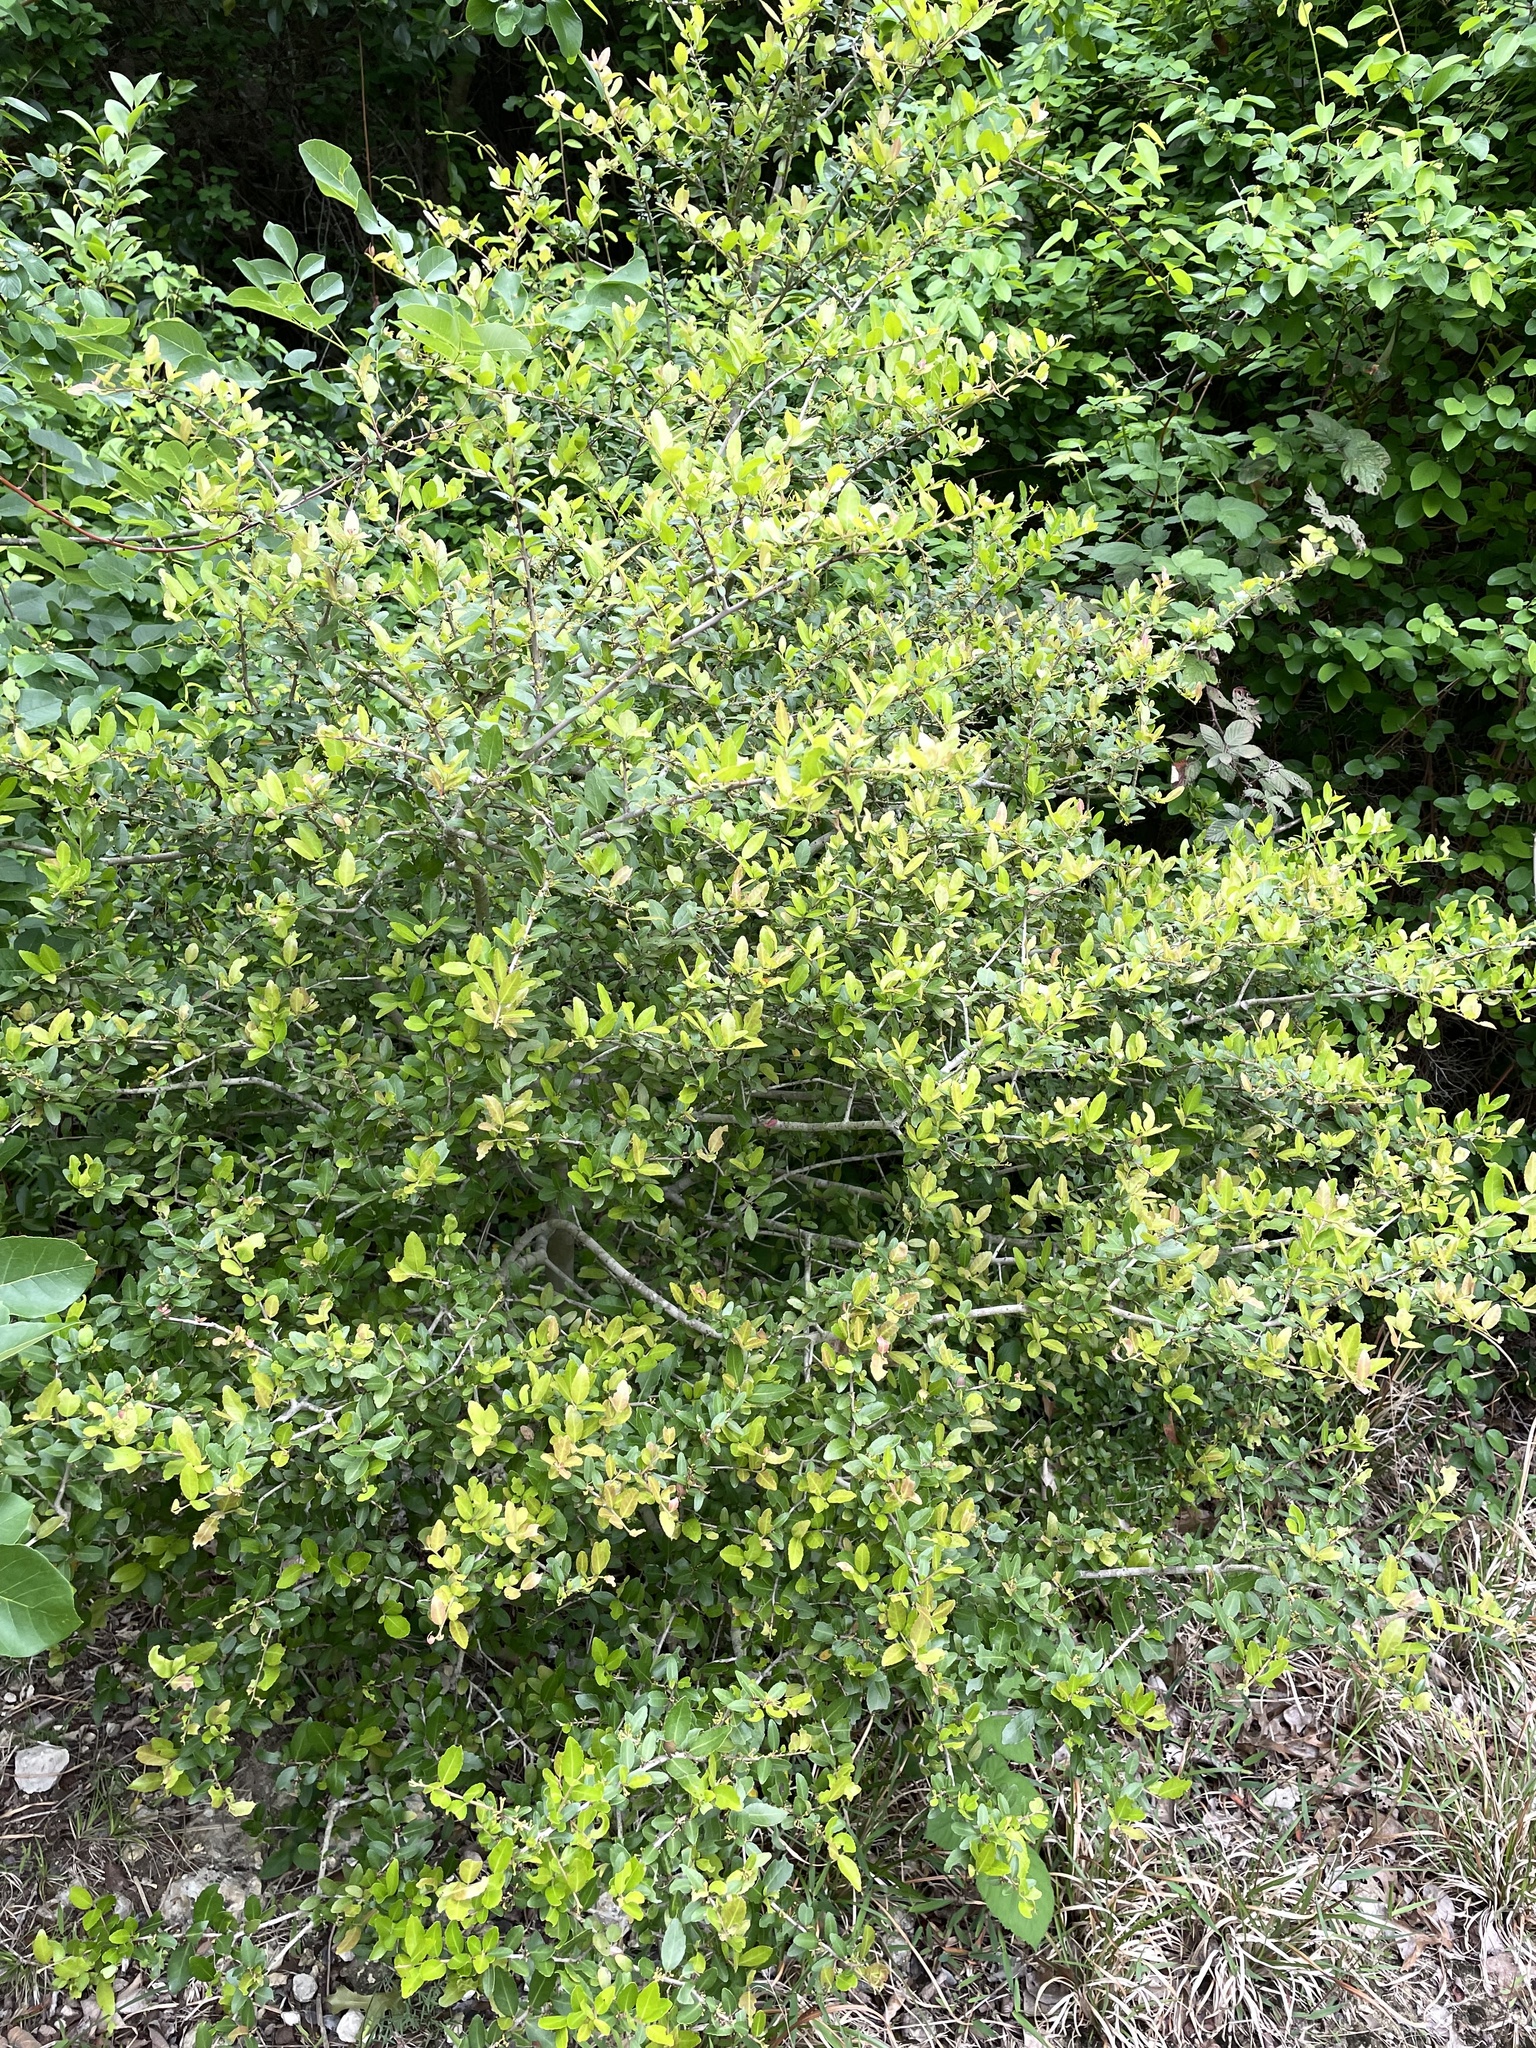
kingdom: Plantae
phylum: Tracheophyta
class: Magnoliopsida
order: Aquifoliales
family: Aquifoliaceae
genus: Ilex
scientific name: Ilex vomitoria
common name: Yaupon holly
